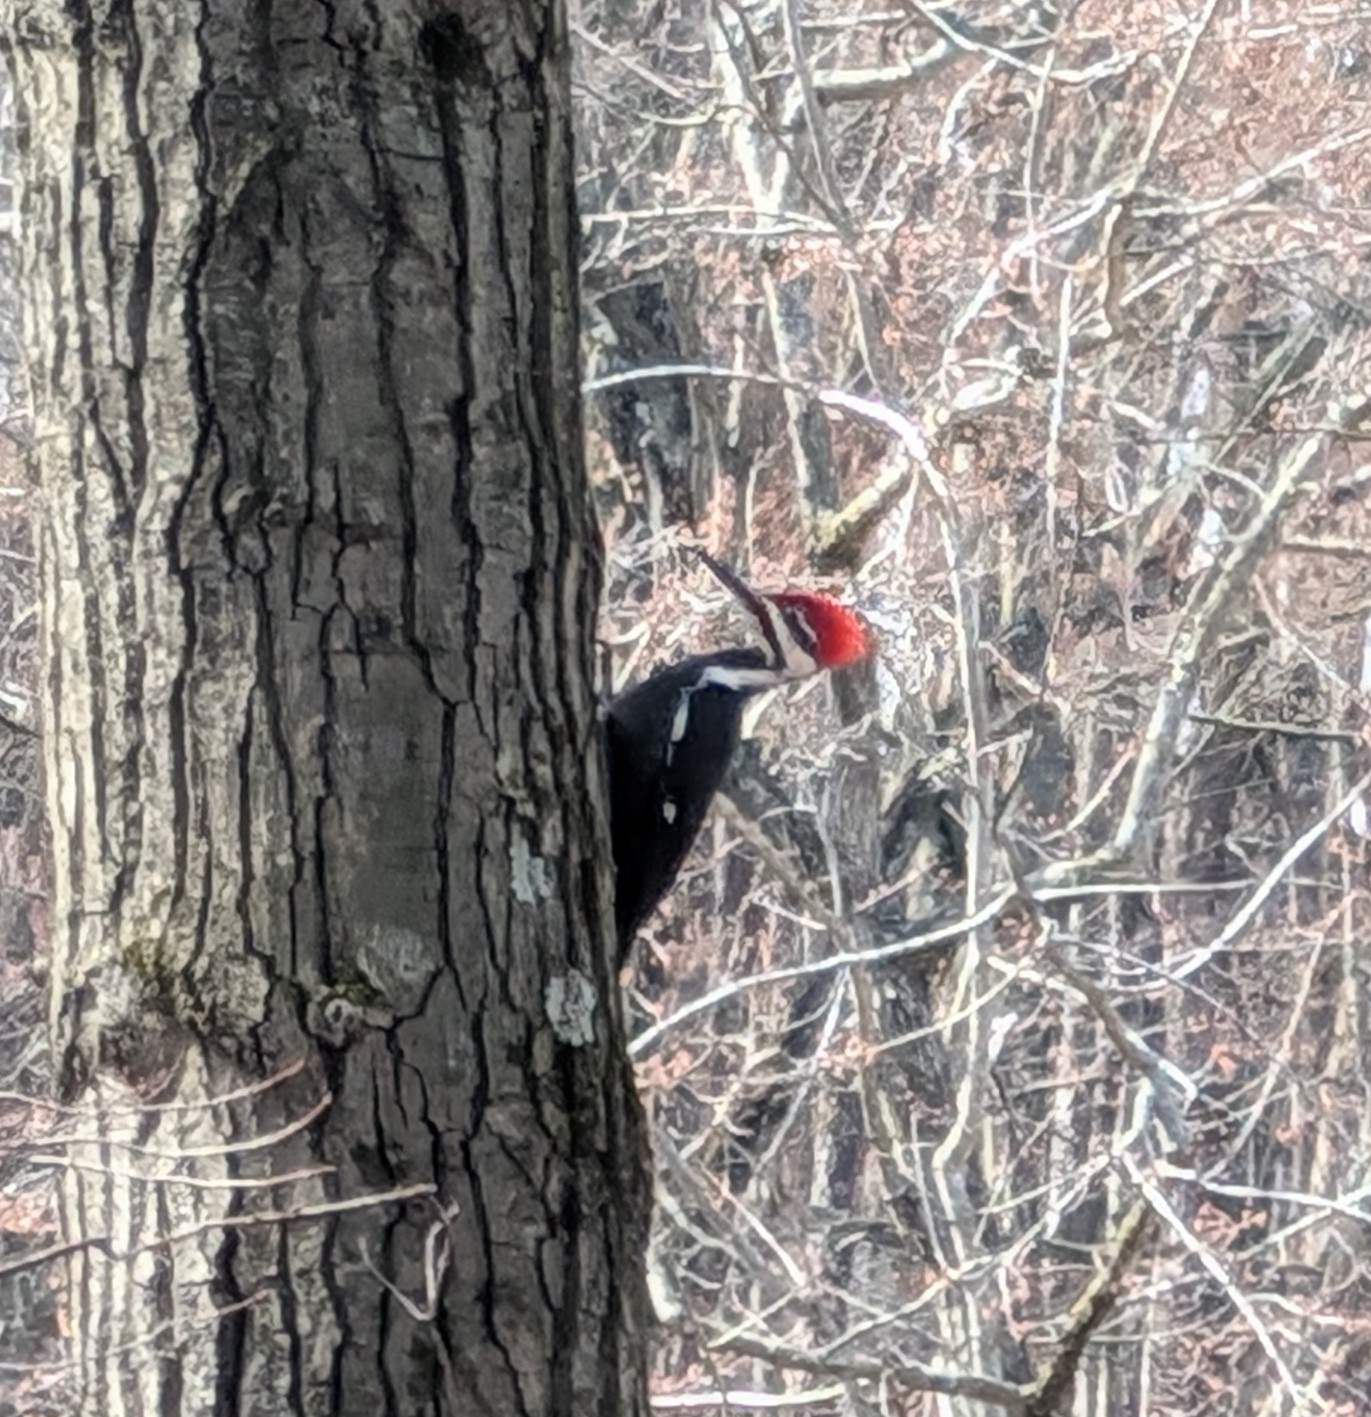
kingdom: Animalia
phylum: Chordata
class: Aves
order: Piciformes
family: Picidae
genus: Dryocopus
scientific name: Dryocopus pileatus
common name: Pileated woodpecker
